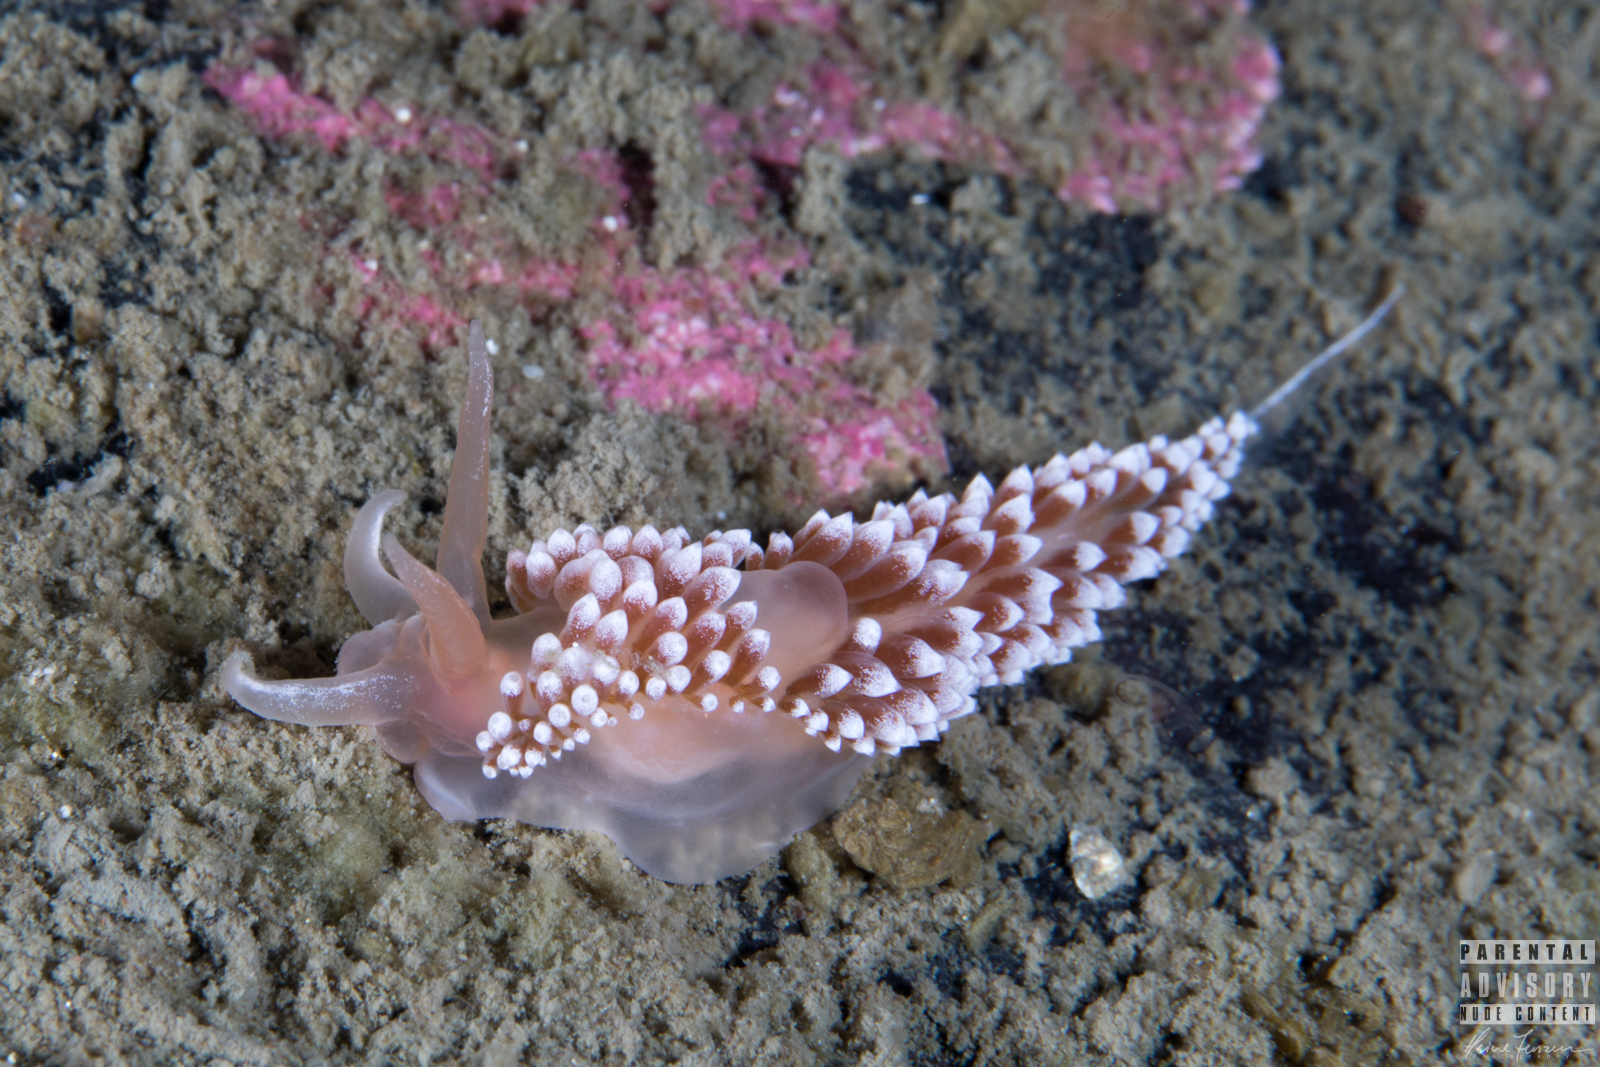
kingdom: Animalia
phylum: Mollusca
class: Gastropoda
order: Nudibranchia
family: Coryphellidae
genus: Coryphella
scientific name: Coryphella verrucosa
